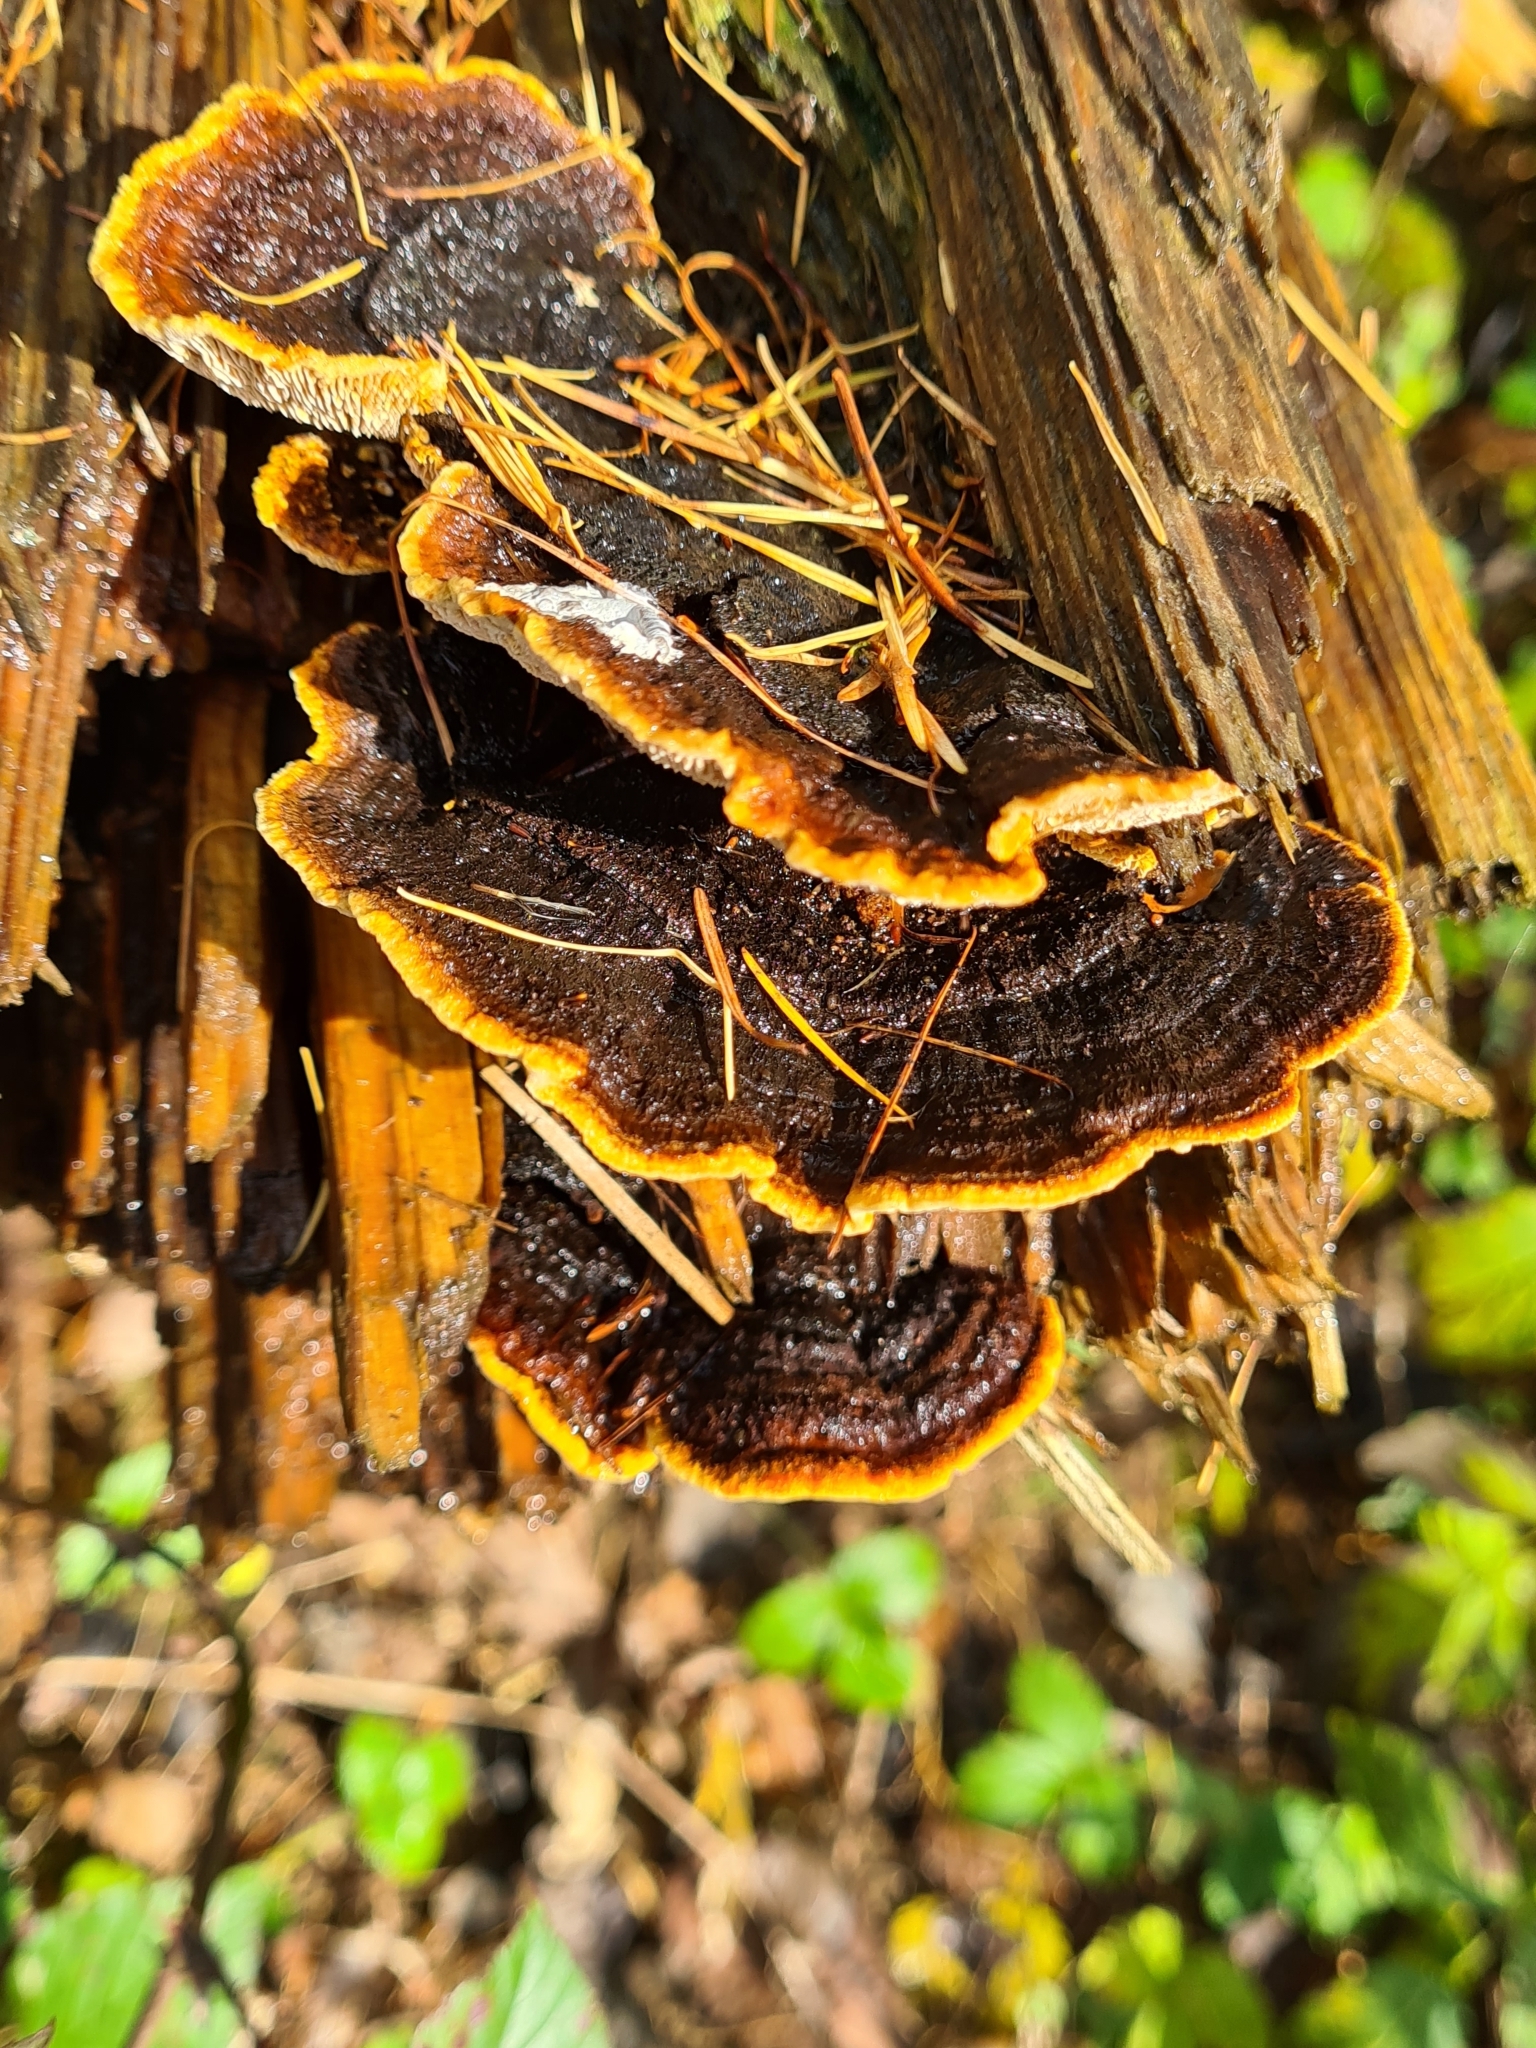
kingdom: Fungi
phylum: Basidiomycota
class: Agaricomycetes
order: Gloeophyllales
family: Gloeophyllaceae
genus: Gloeophyllum
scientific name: Gloeophyllum sepiarium
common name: Conifer mazegill
